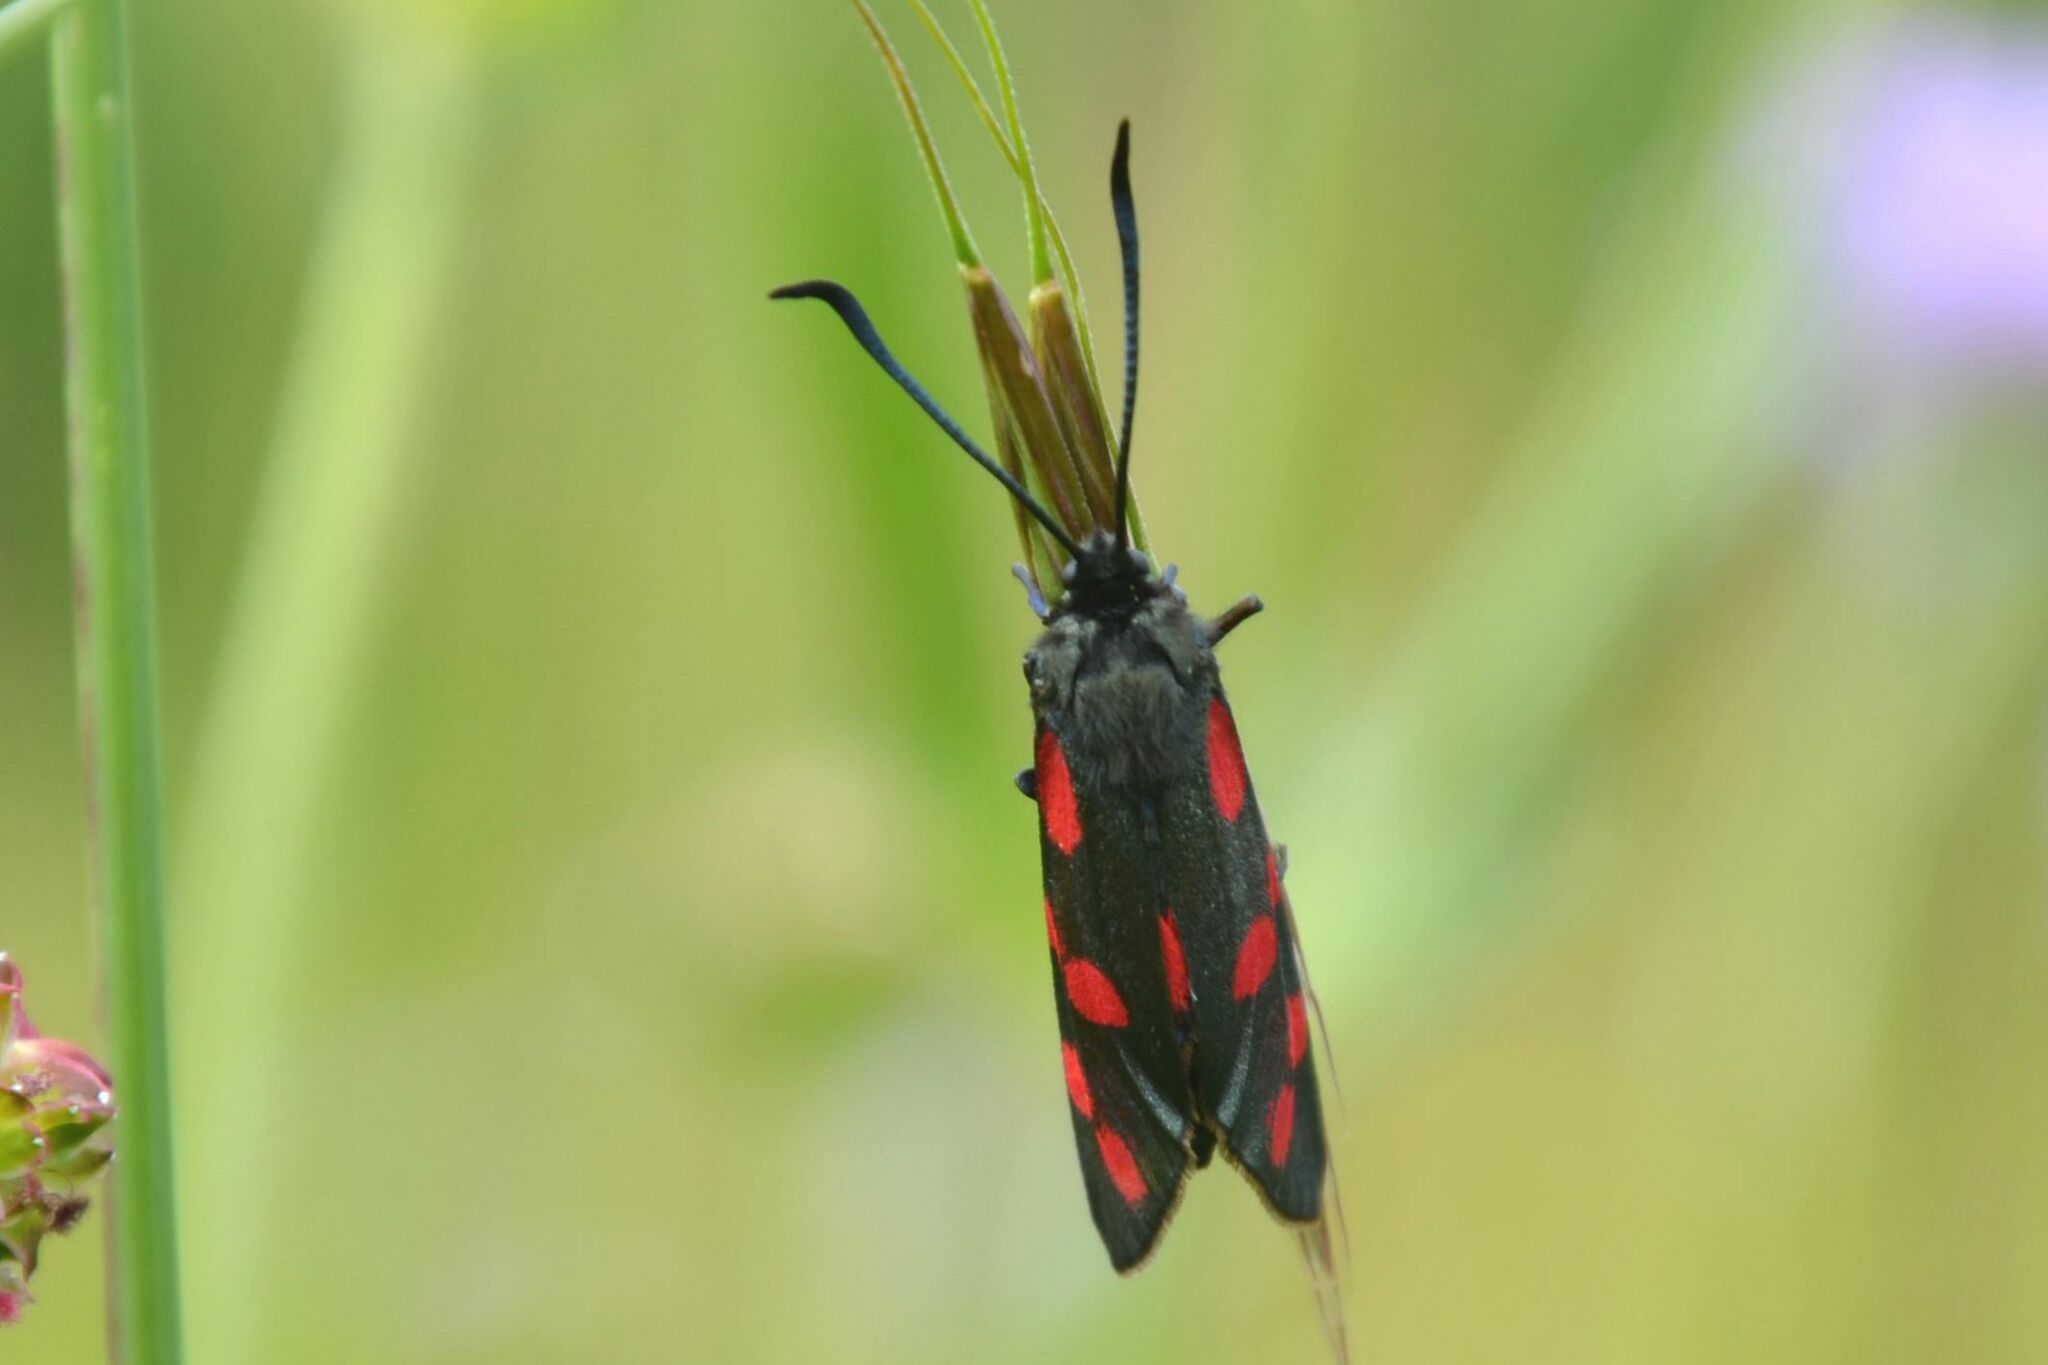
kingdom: Animalia
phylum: Arthropoda
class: Insecta
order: Lepidoptera
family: Zygaenidae
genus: Zygaena
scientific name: Zygaena filipendulae
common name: Six-spot burnet
